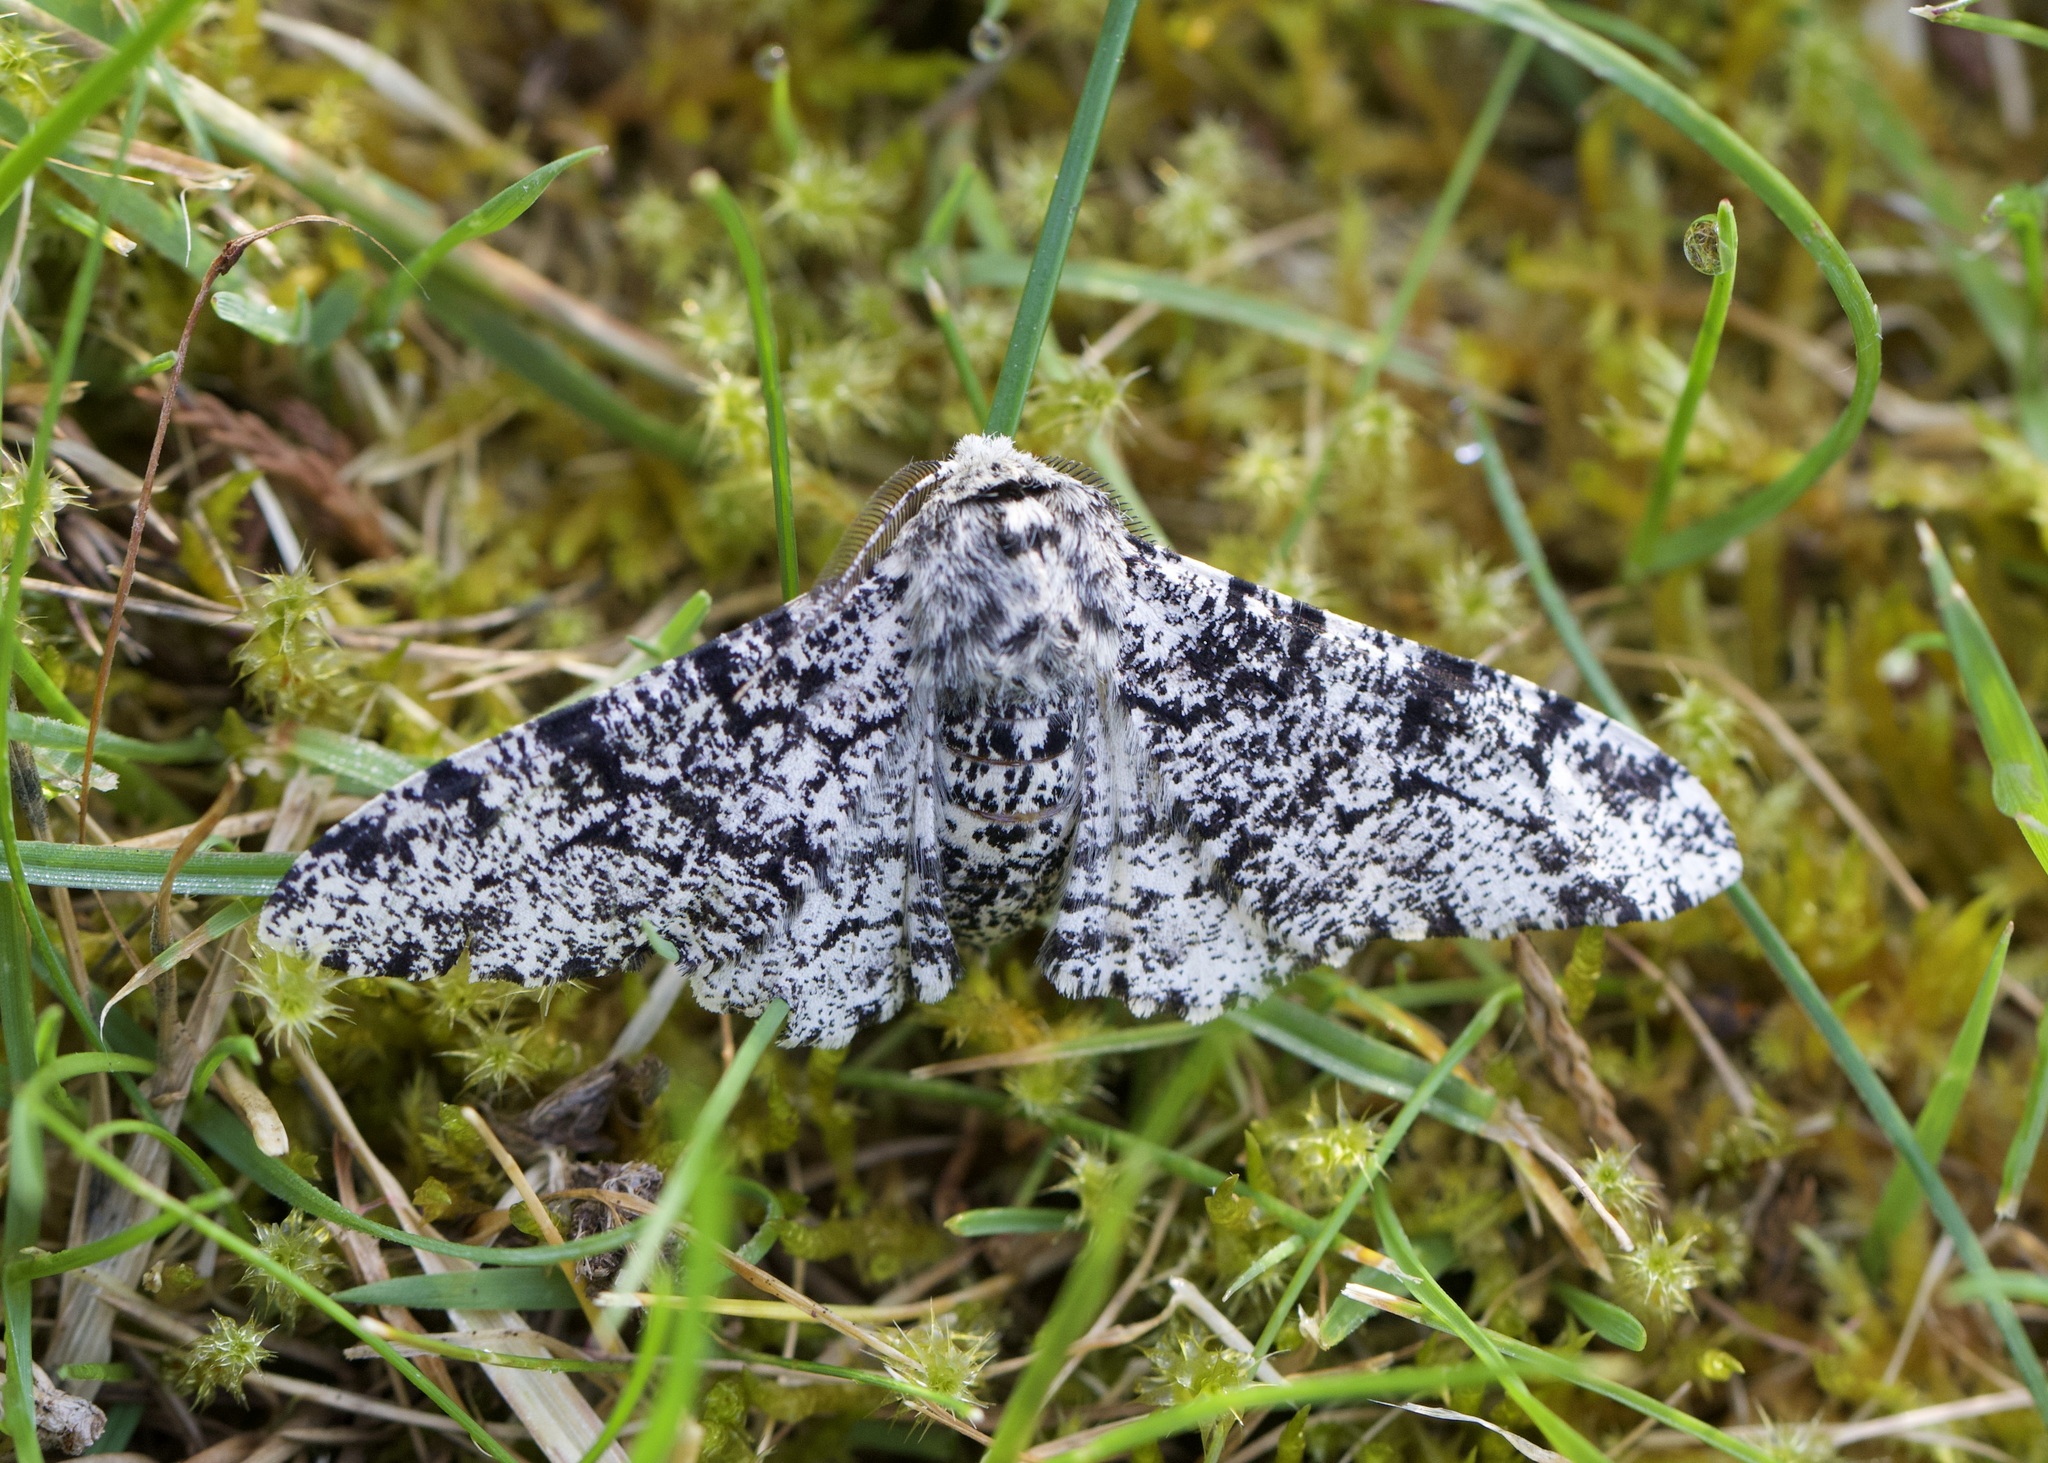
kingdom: Animalia
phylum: Arthropoda
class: Insecta
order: Lepidoptera
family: Geometridae
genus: Biston
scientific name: Biston betularia
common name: Peppered moth
